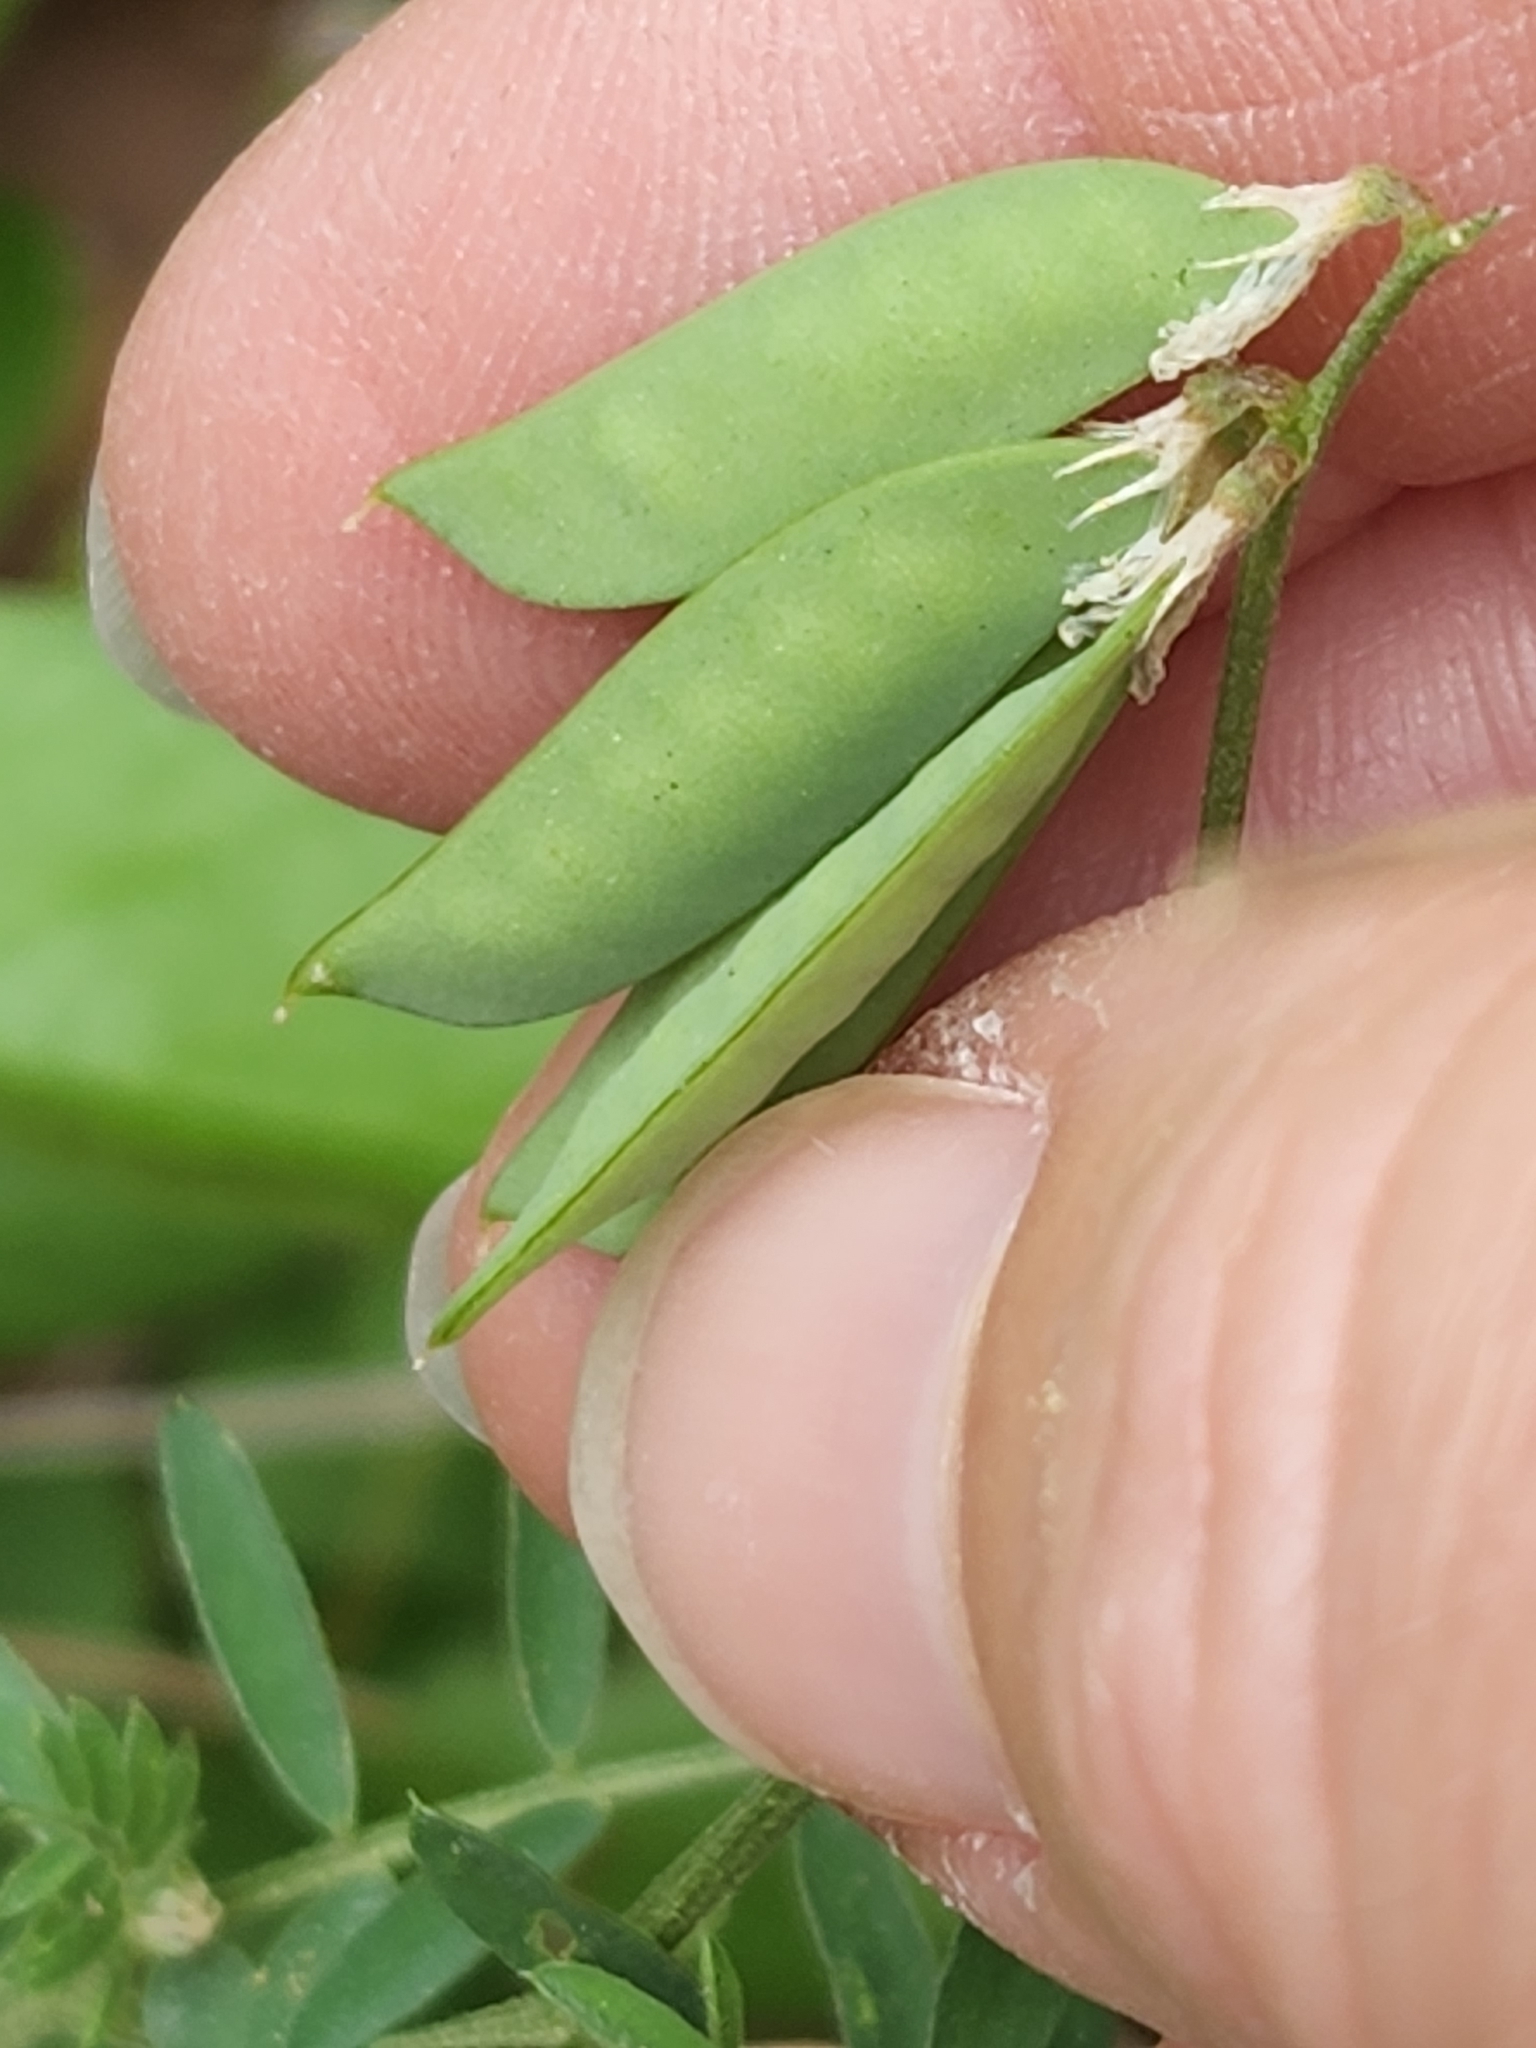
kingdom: Plantae
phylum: Tracheophyta
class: Magnoliopsida
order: Fabales
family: Fabaceae
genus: Vicia
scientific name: Vicia ludoviciana
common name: Louisiana vetch
